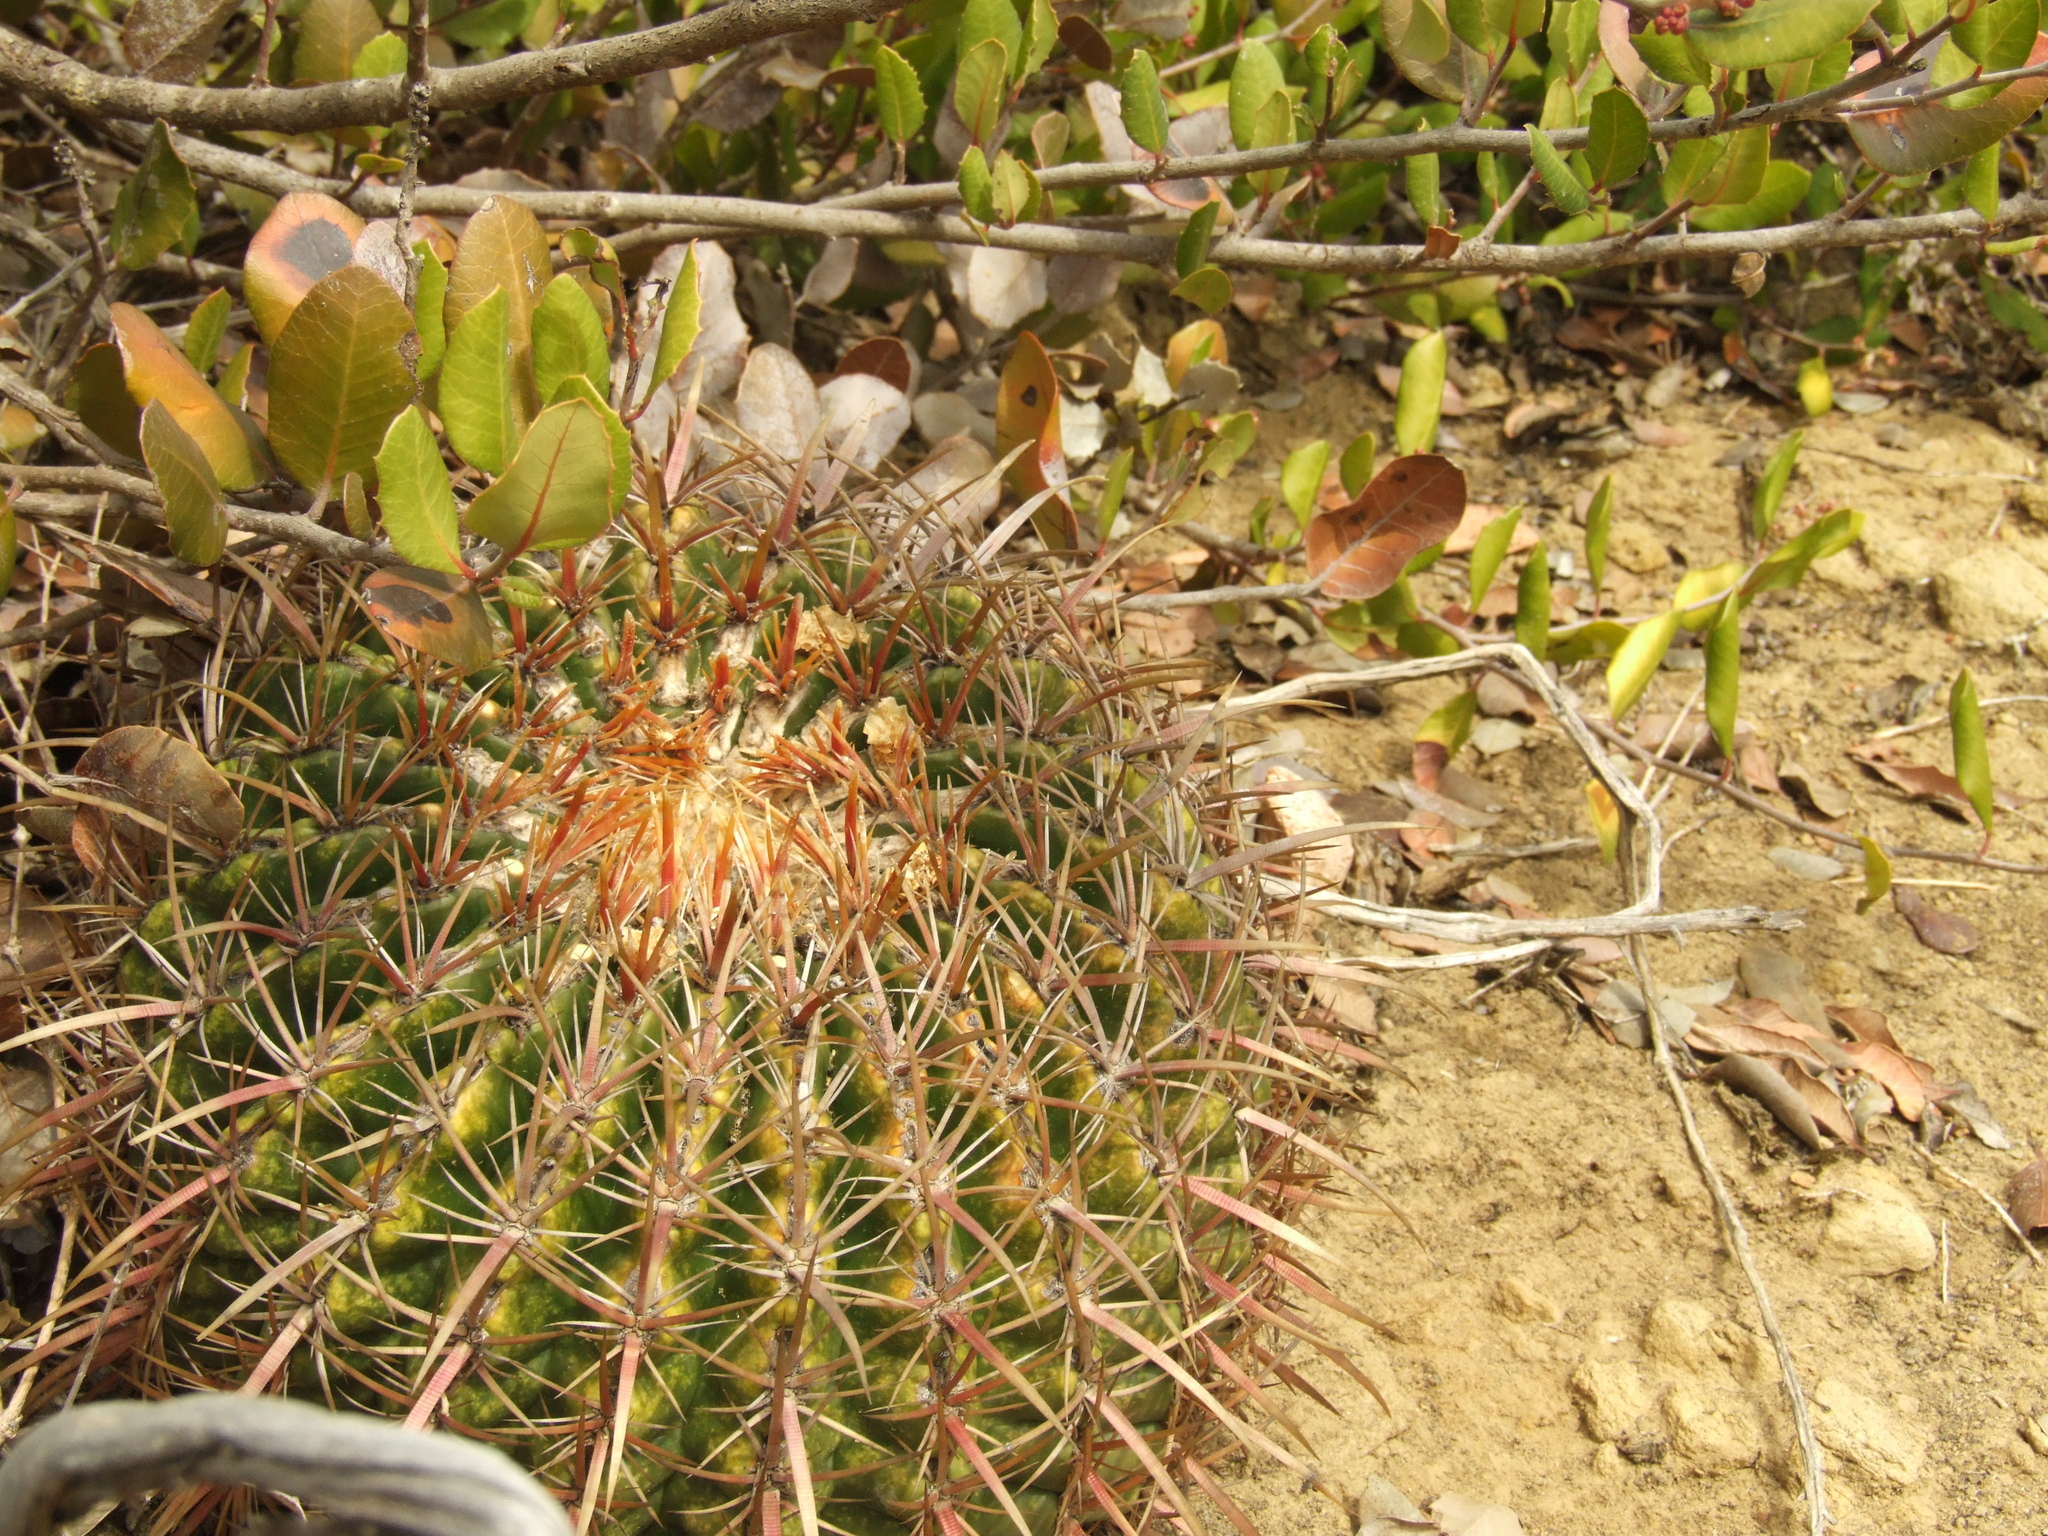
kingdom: Plantae
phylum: Tracheophyta
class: Magnoliopsida
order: Caryophyllales
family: Cactaceae
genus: Ferocactus
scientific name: Ferocactus viridescens
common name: San diego barrel cactus
